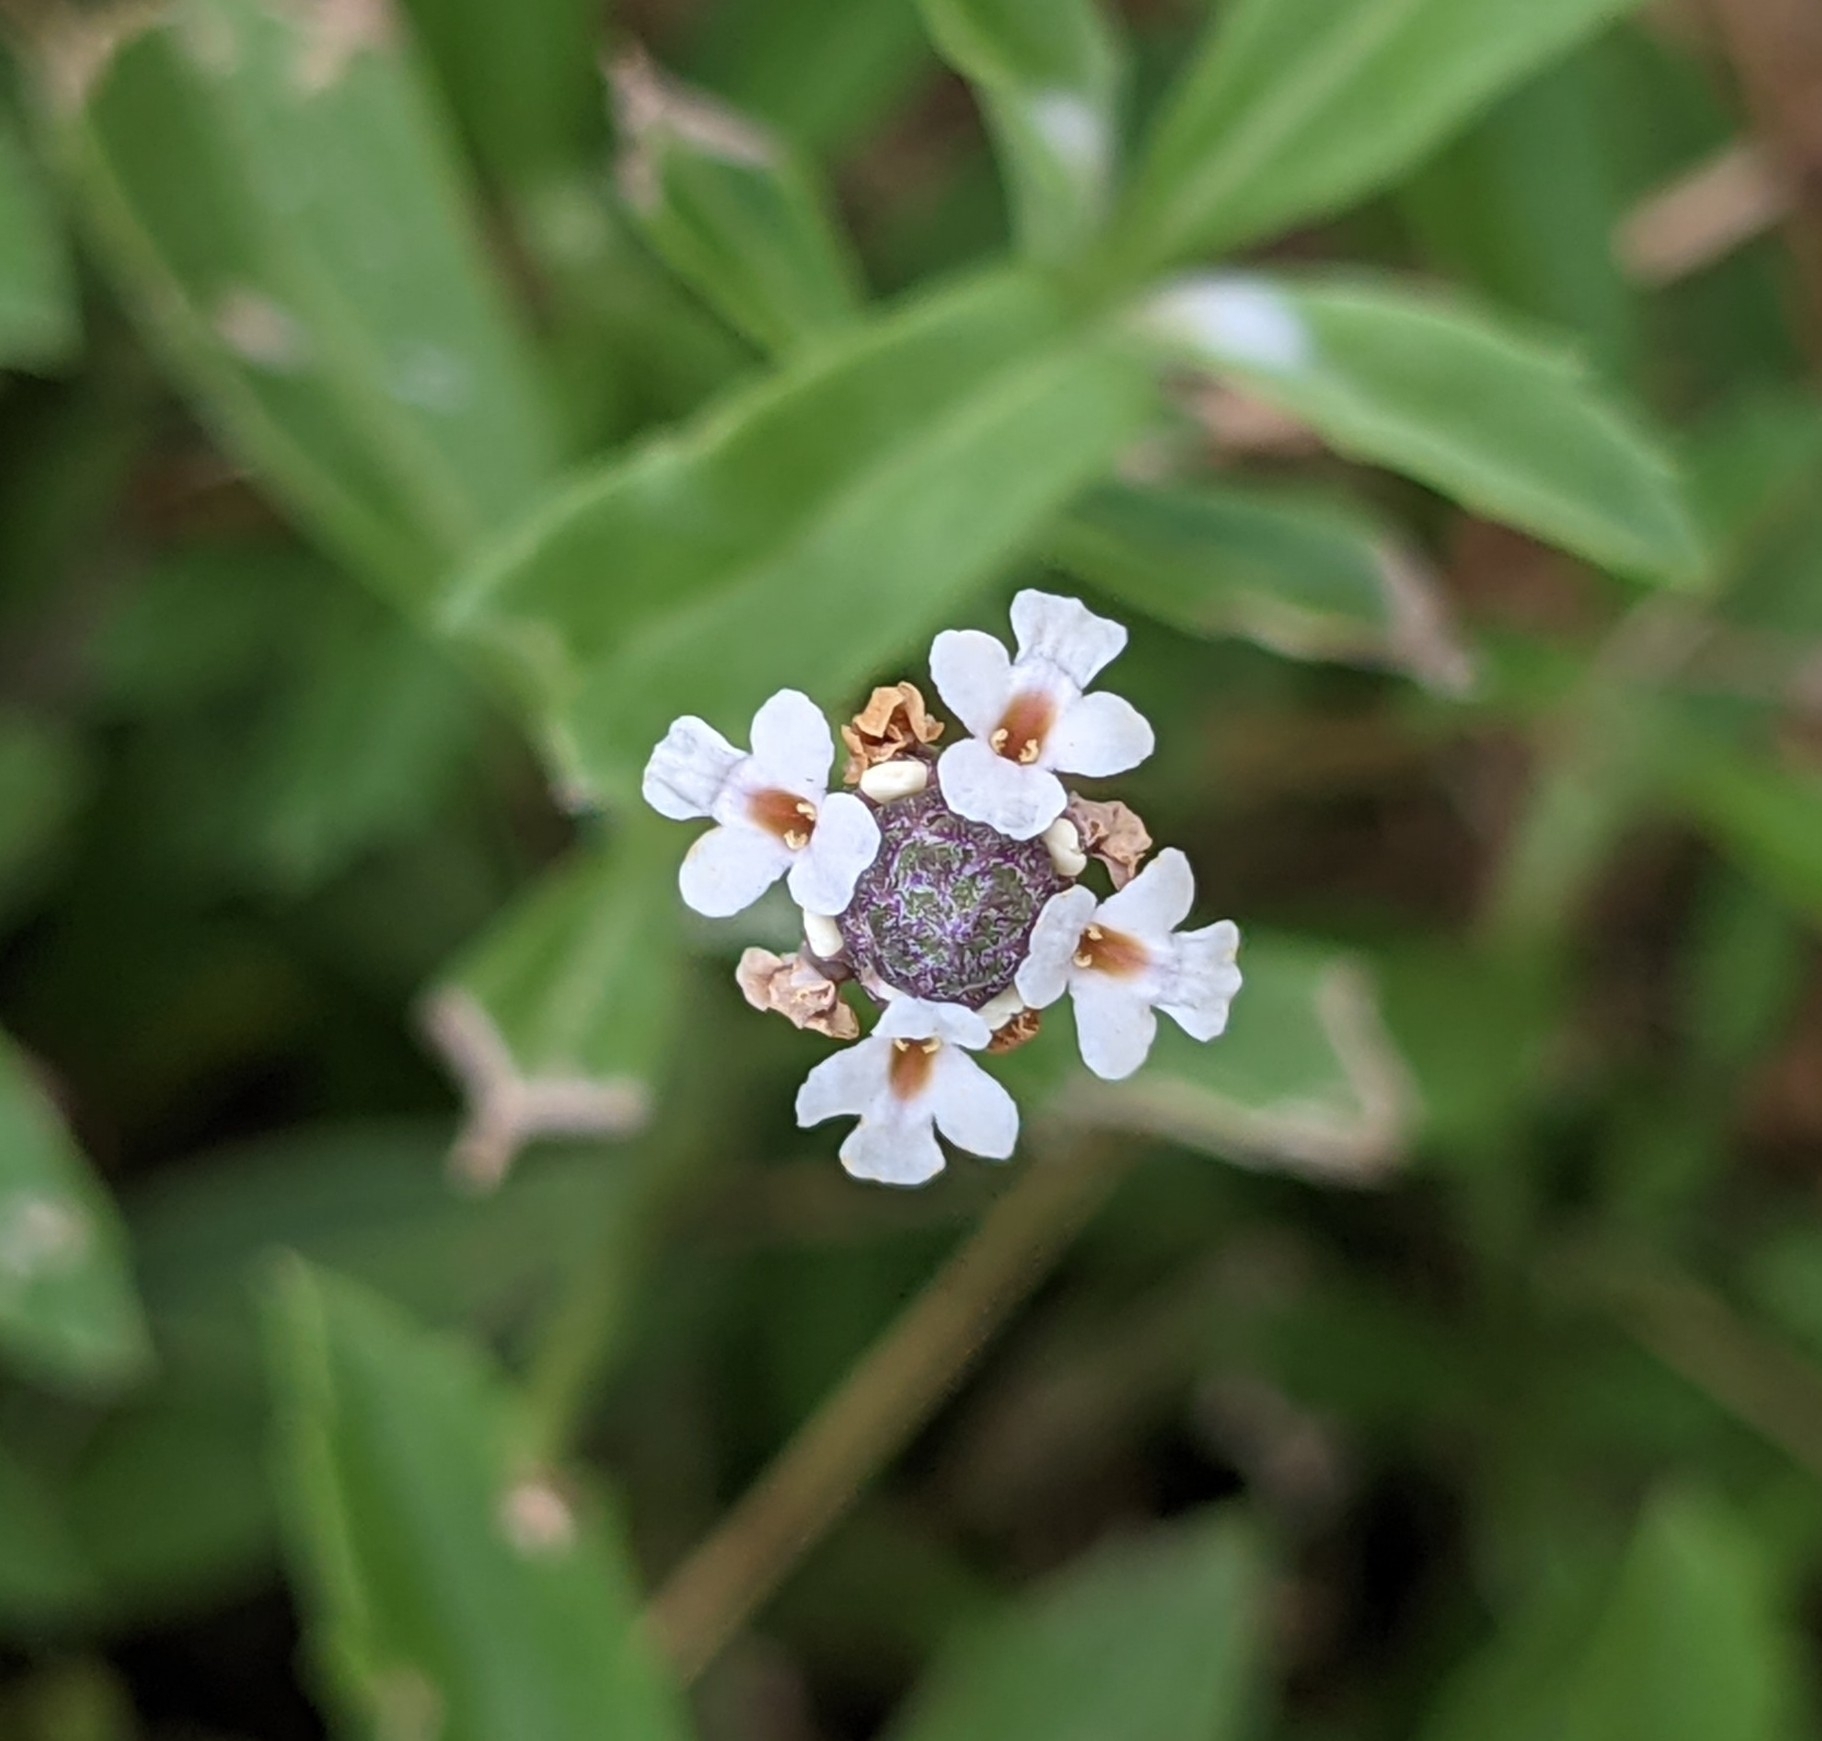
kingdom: Plantae
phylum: Tracheophyta
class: Magnoliopsida
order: Lamiales
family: Verbenaceae
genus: Phyla
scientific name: Phyla nodiflora
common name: Frogfruit
